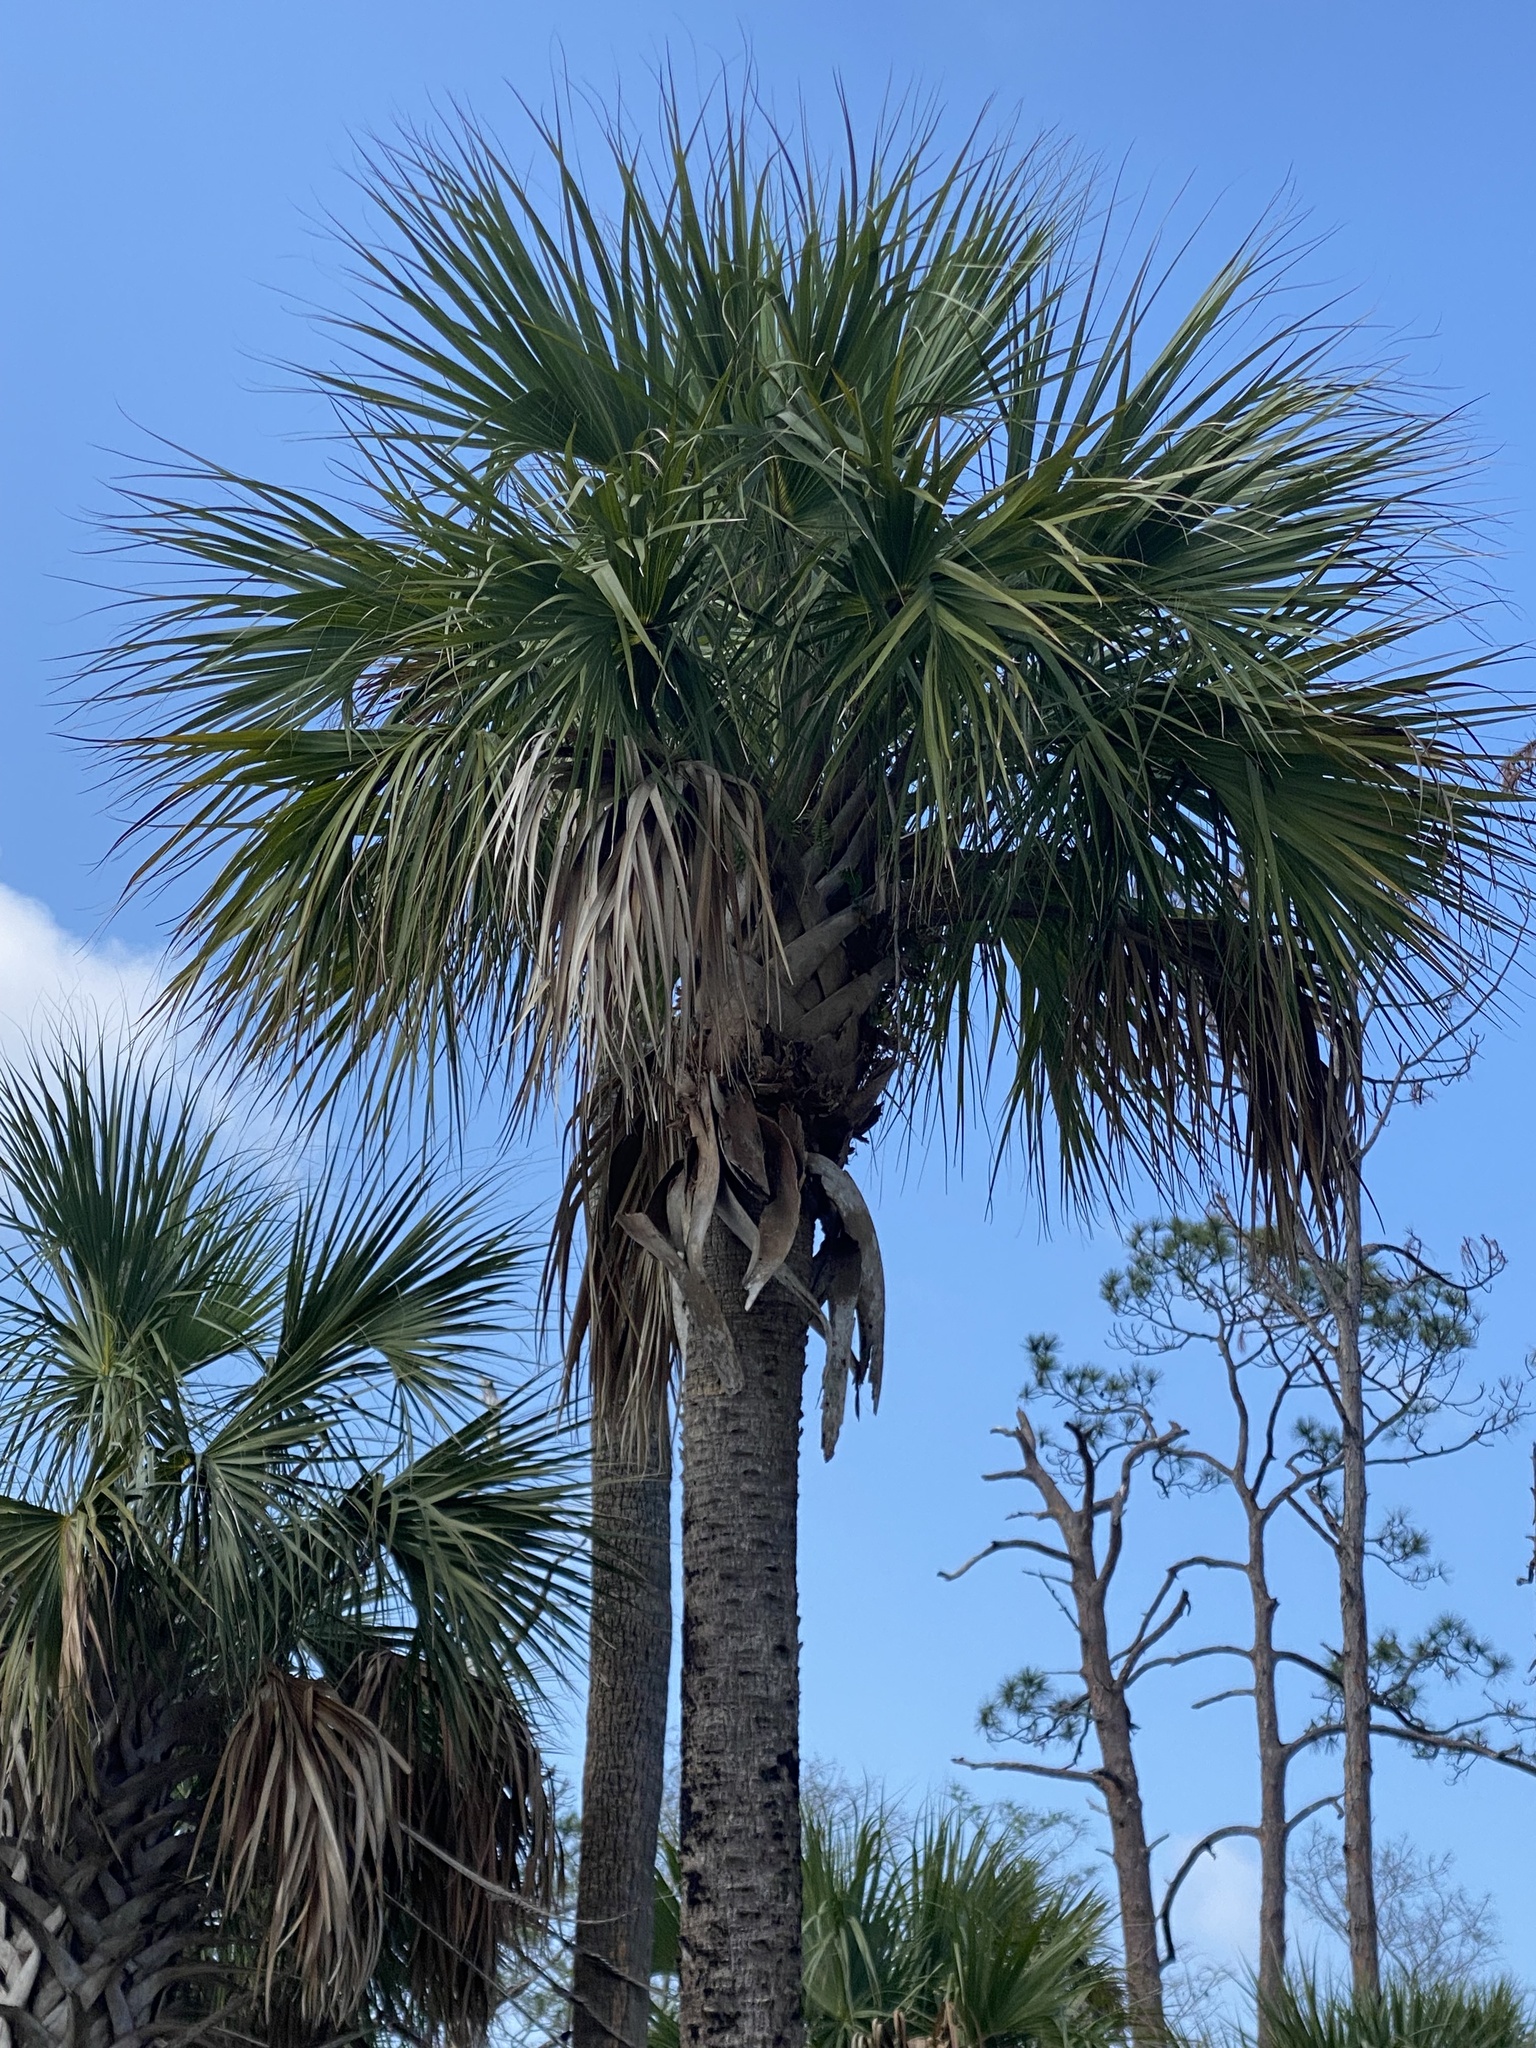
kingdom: Plantae
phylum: Tracheophyta
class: Liliopsida
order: Arecales
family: Arecaceae
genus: Sabal
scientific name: Sabal palmetto
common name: Blue palmetto
